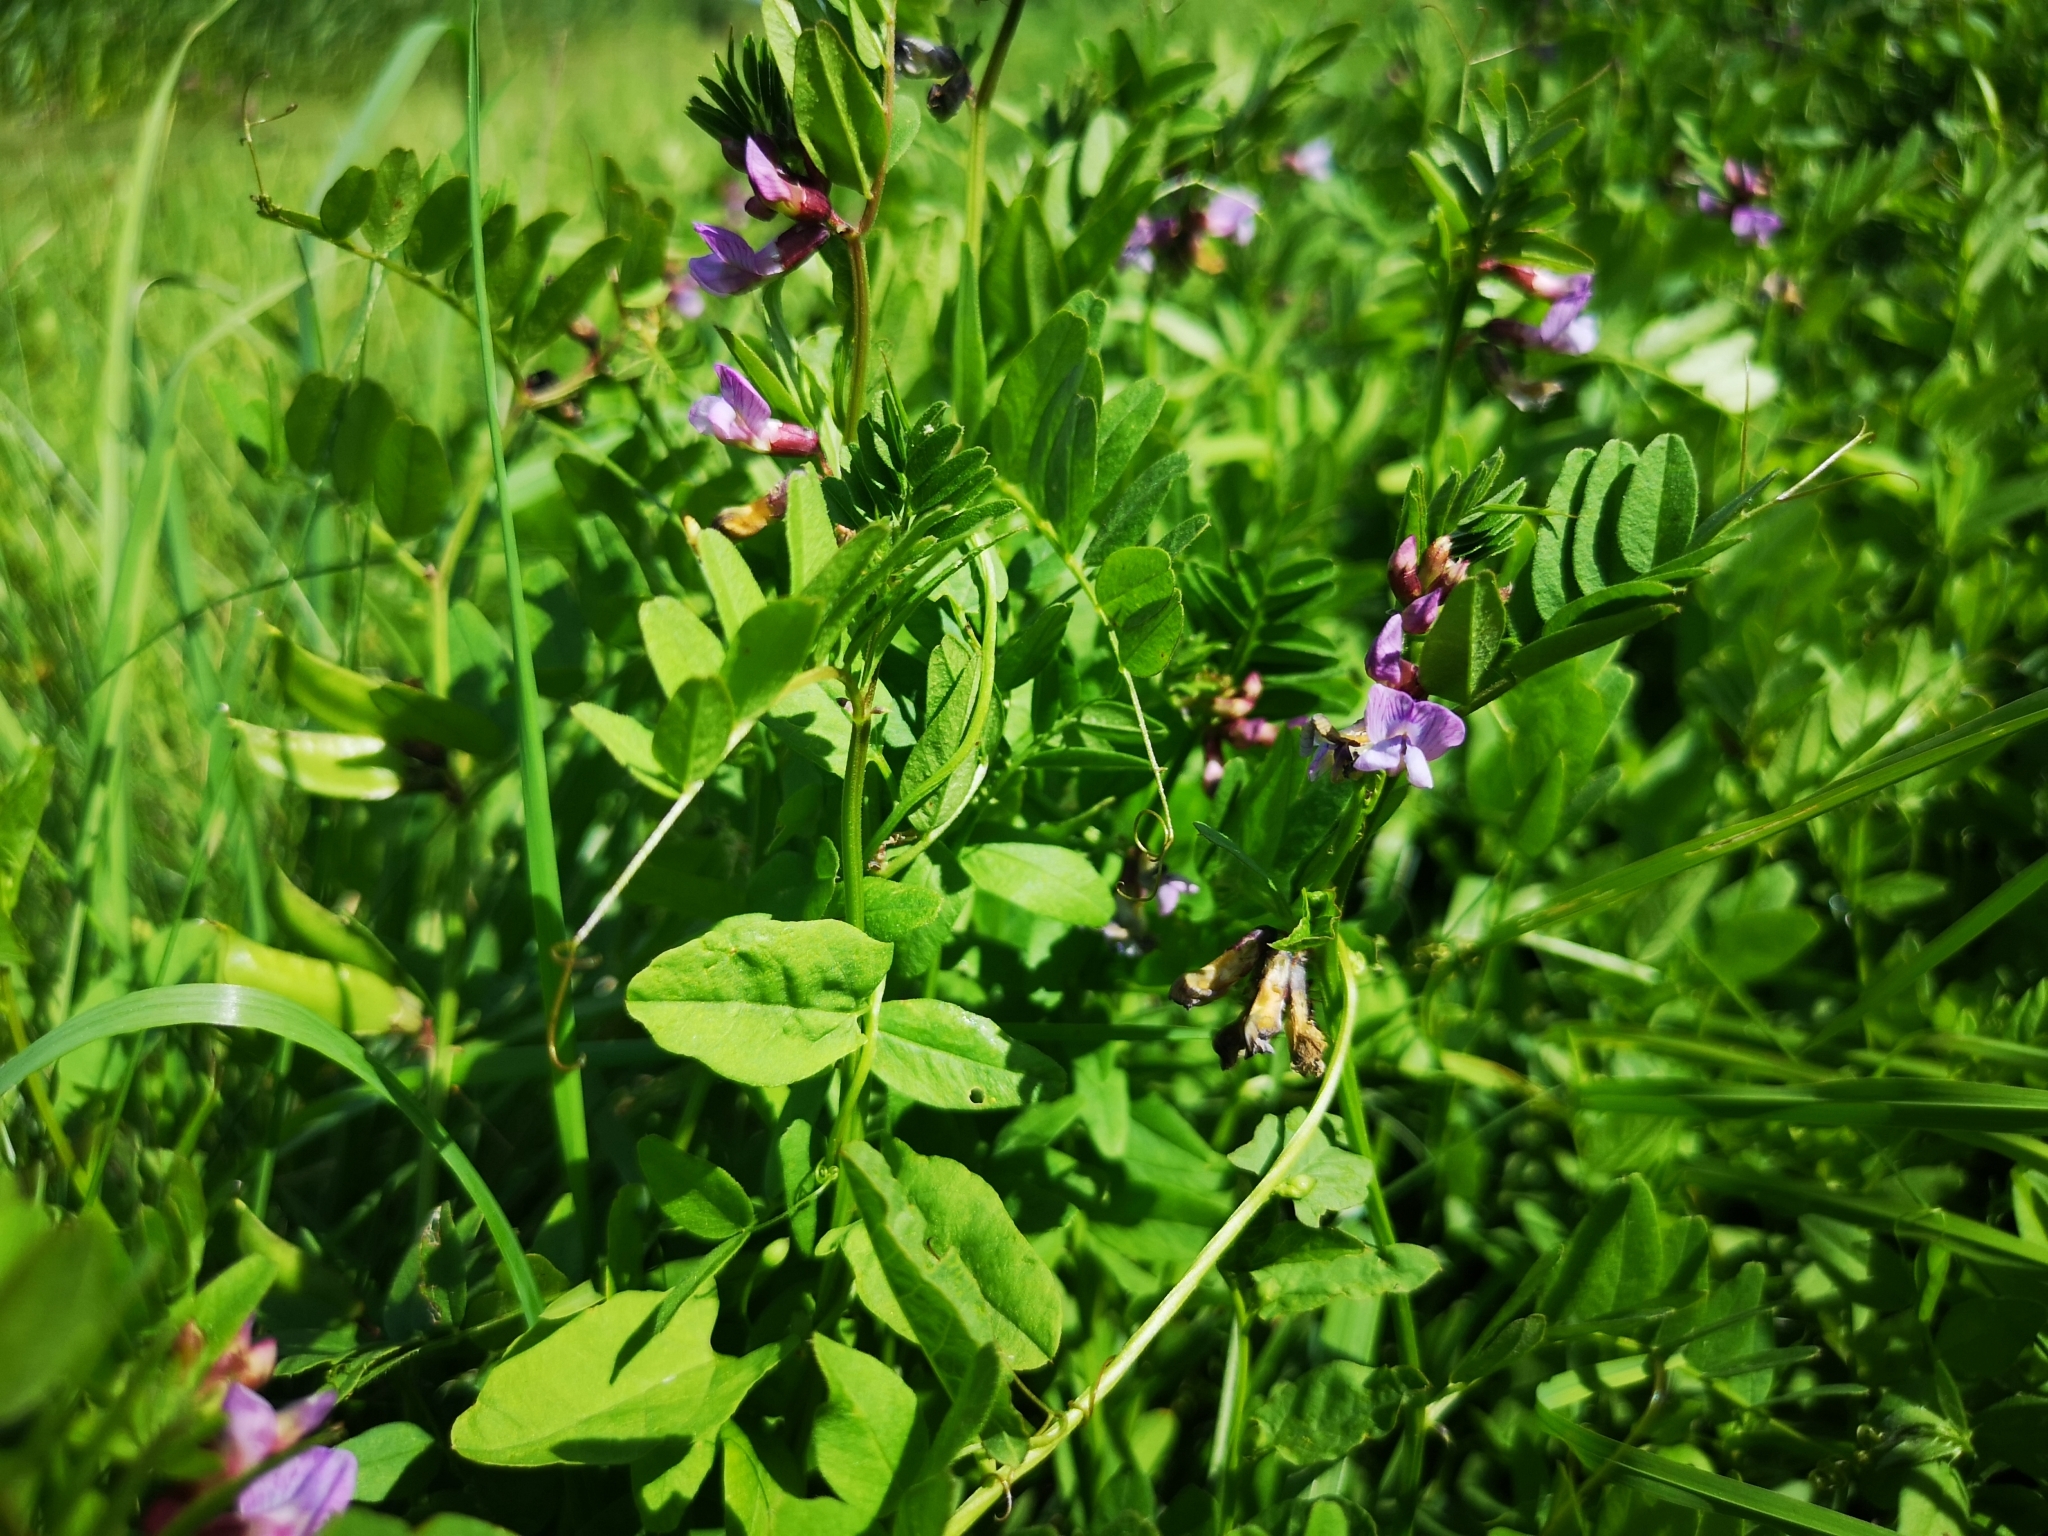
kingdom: Plantae
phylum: Tracheophyta
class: Magnoliopsida
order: Fabales
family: Fabaceae
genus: Vicia
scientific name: Vicia sepium
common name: Bush vetch
